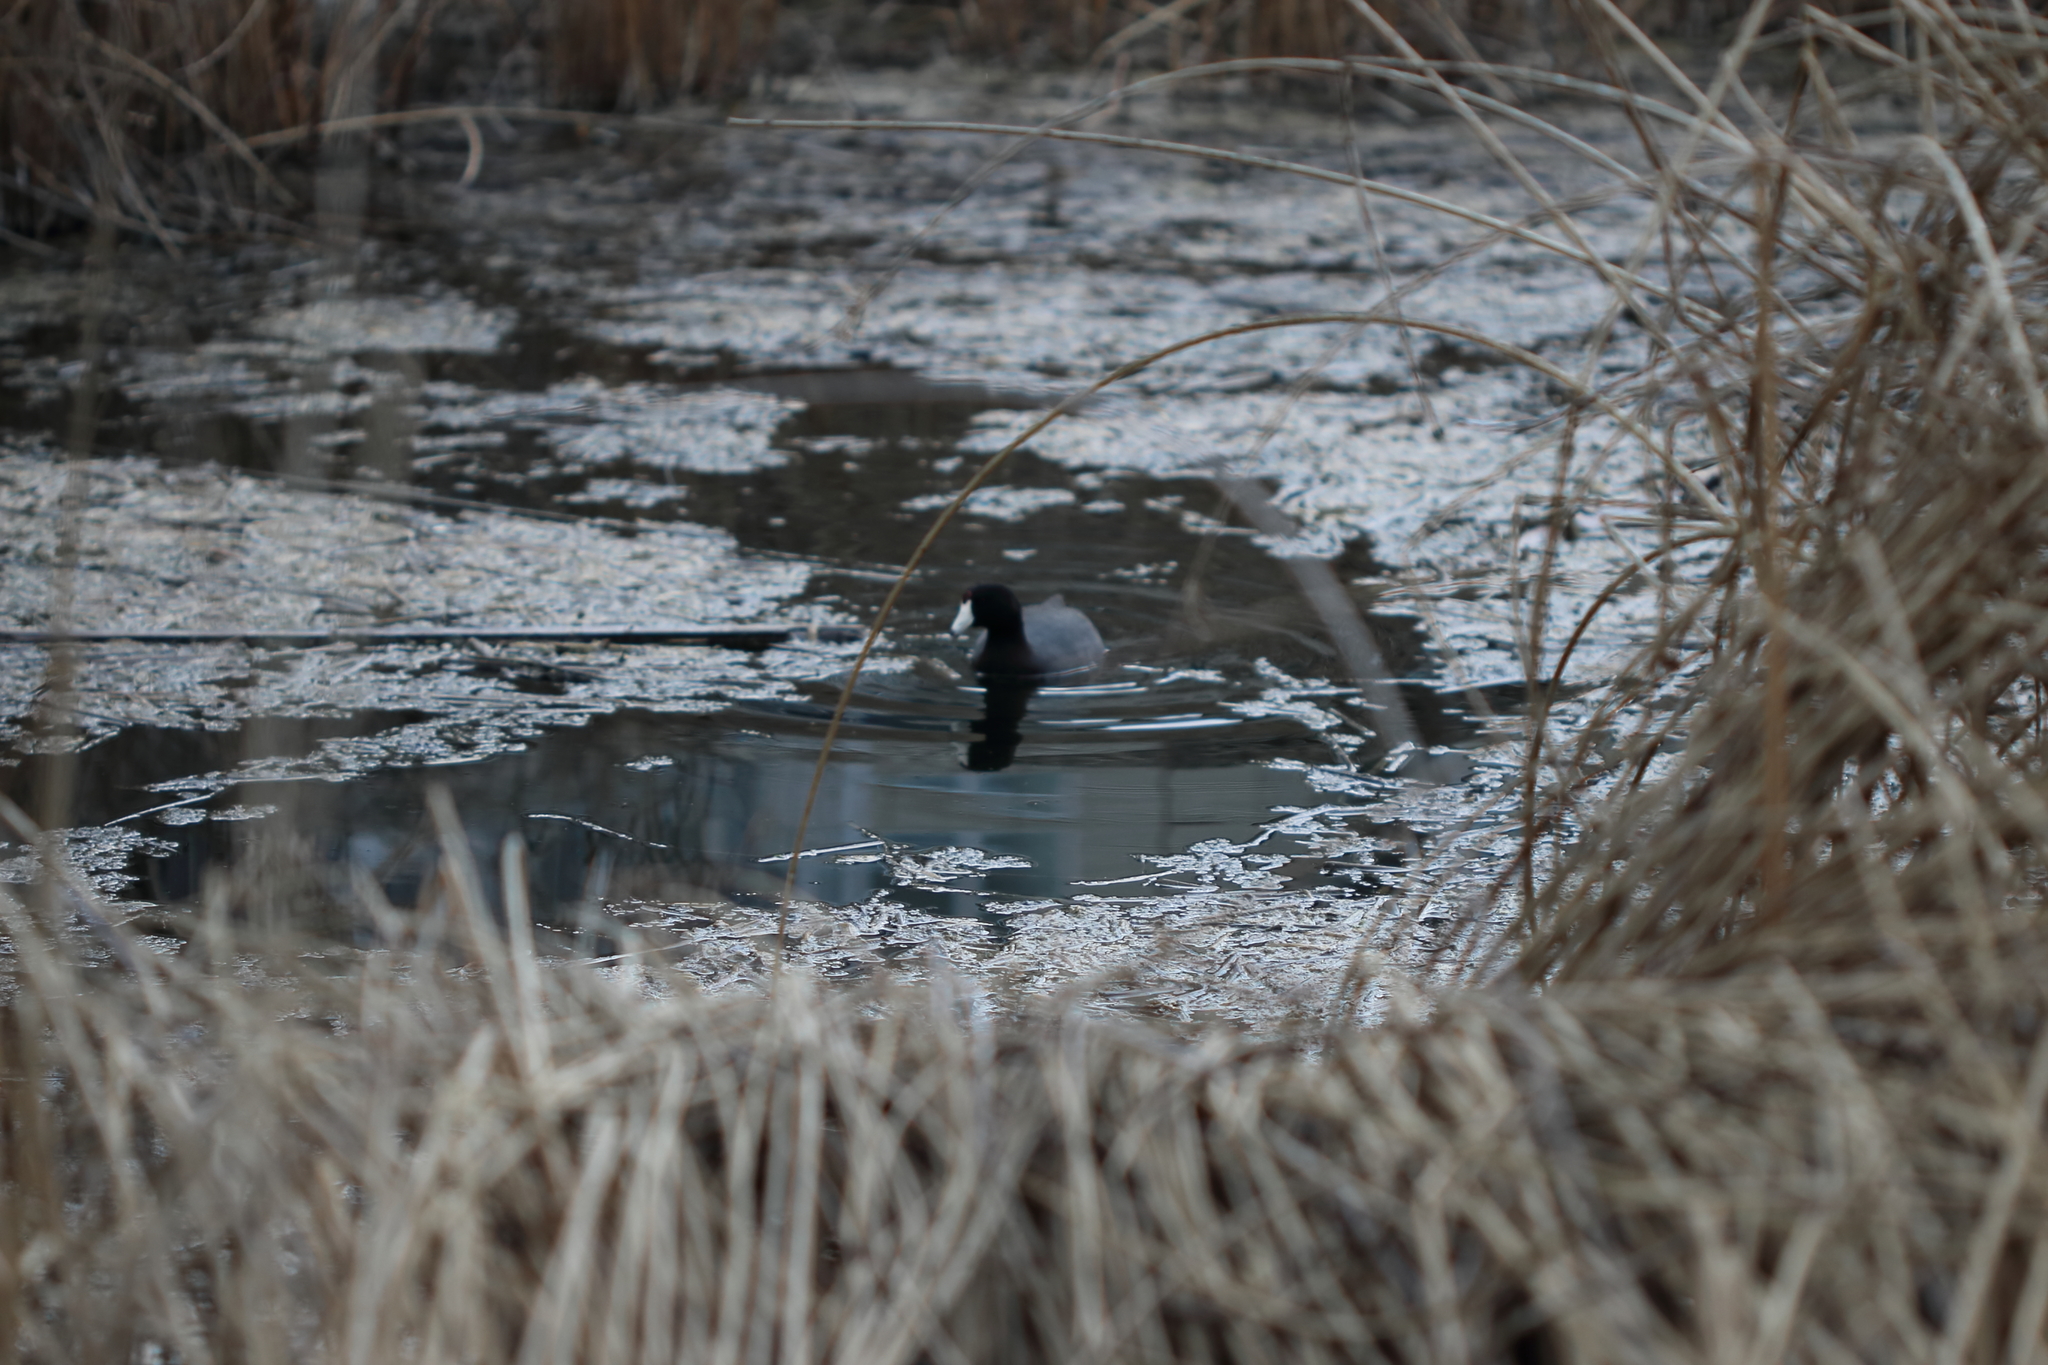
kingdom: Animalia
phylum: Chordata
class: Aves
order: Gruiformes
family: Rallidae
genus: Fulica
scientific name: Fulica americana
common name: American coot
